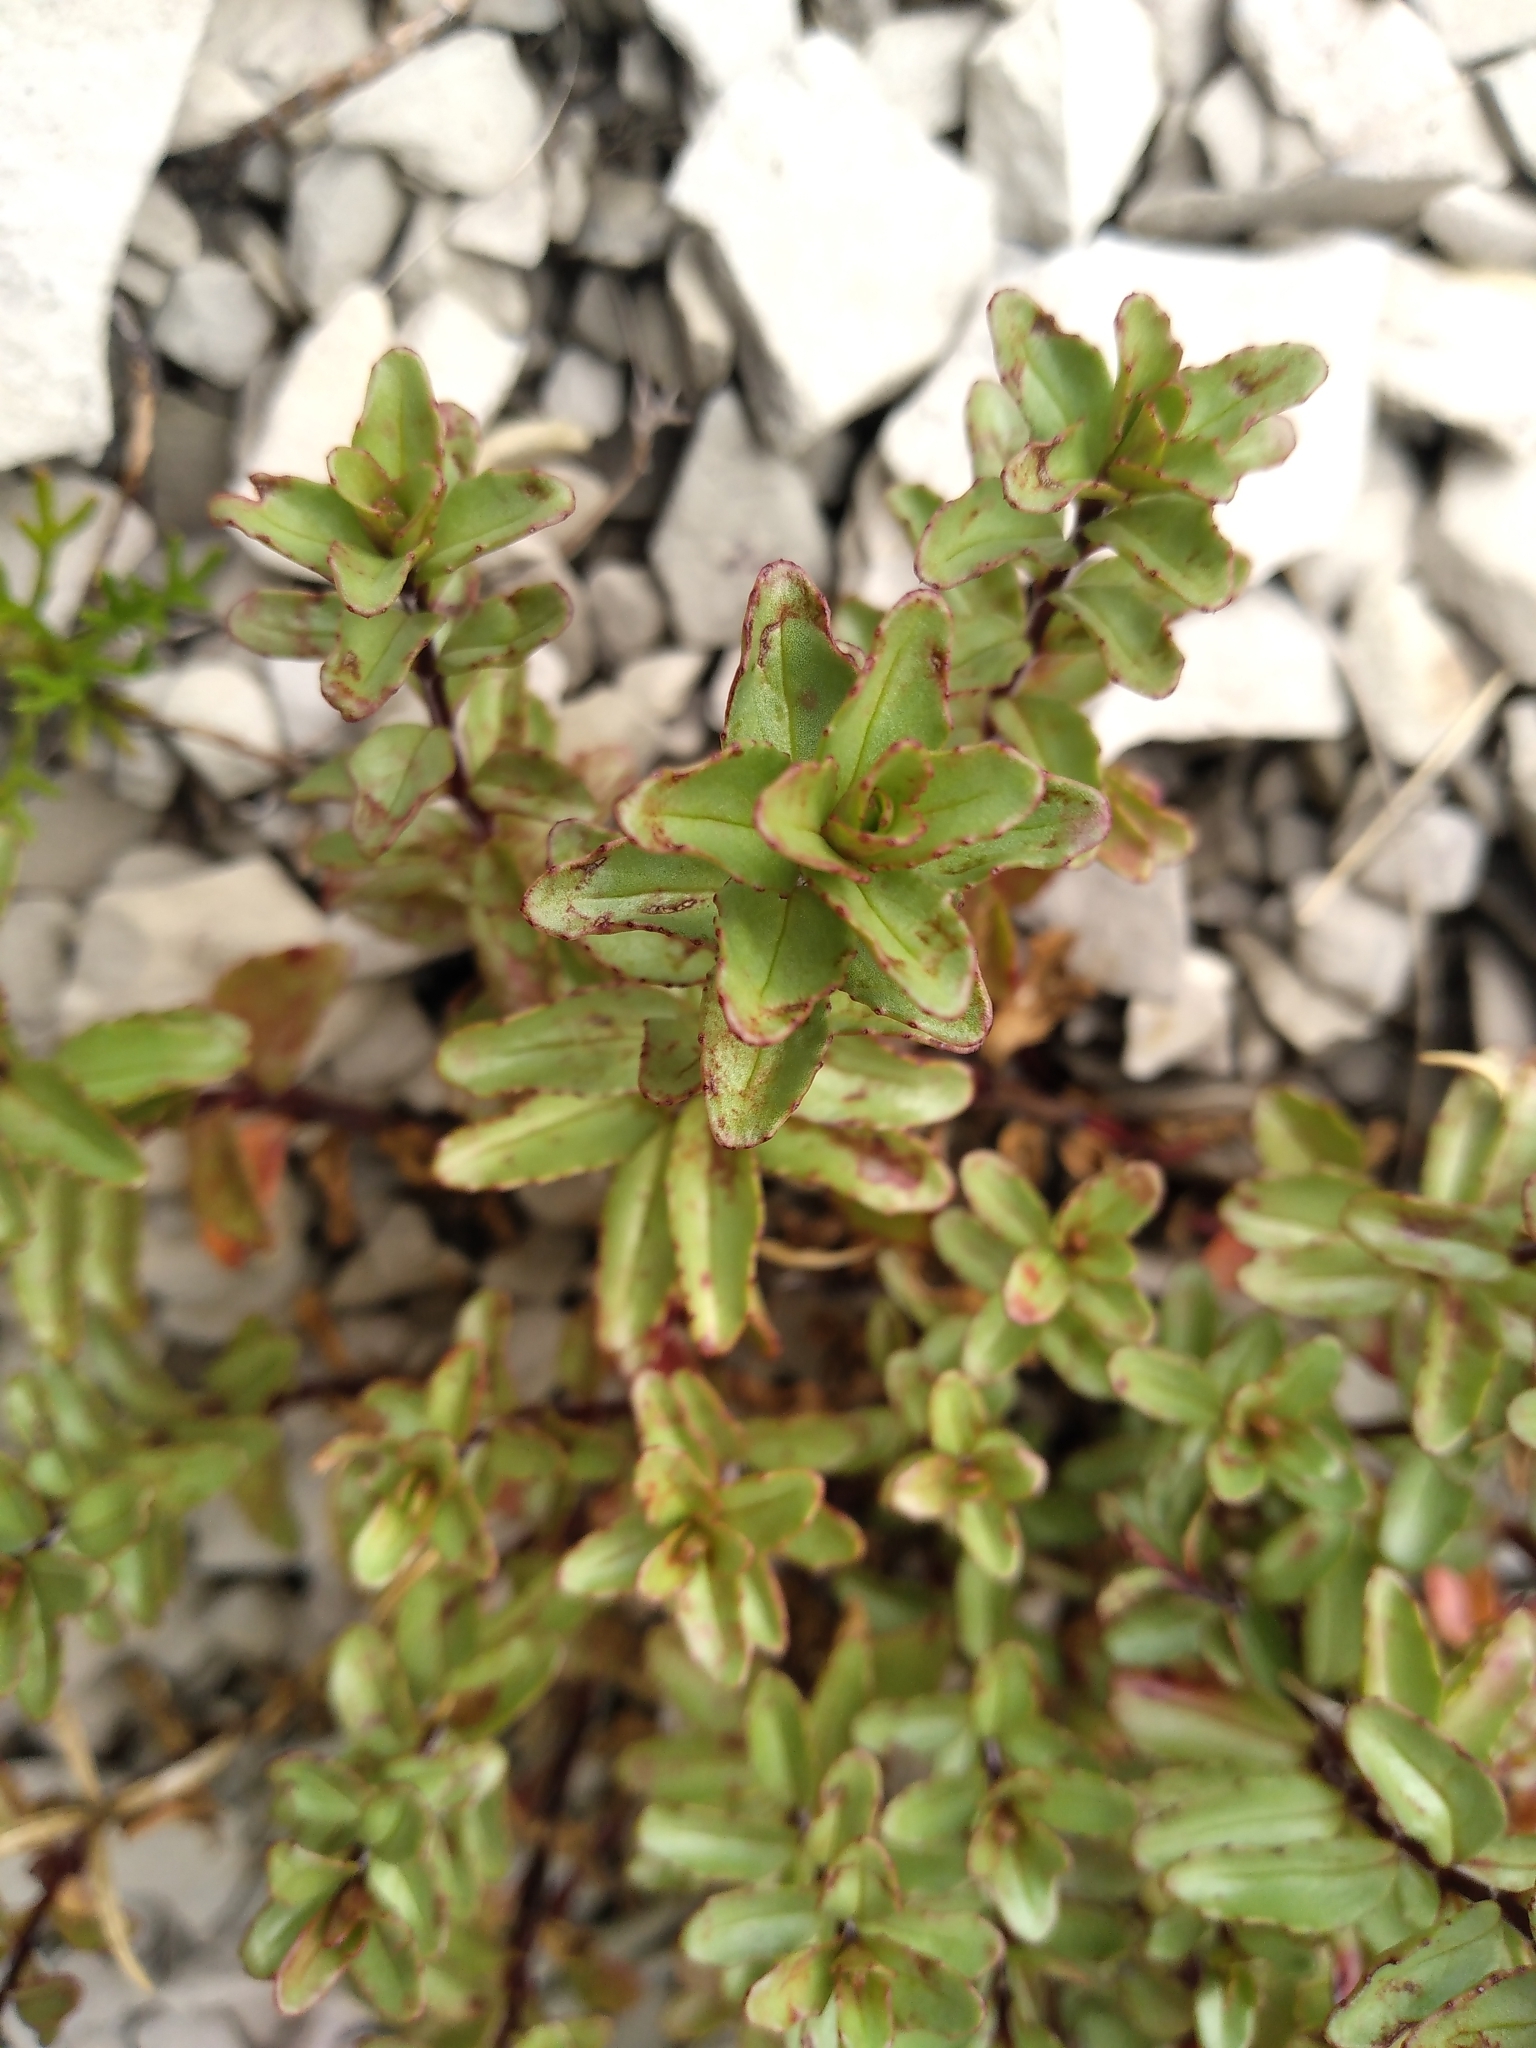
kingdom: Plantae
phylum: Tracheophyta
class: Magnoliopsida
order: Myrtales
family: Onagraceae
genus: Epilobium
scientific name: Epilobium glabellum
